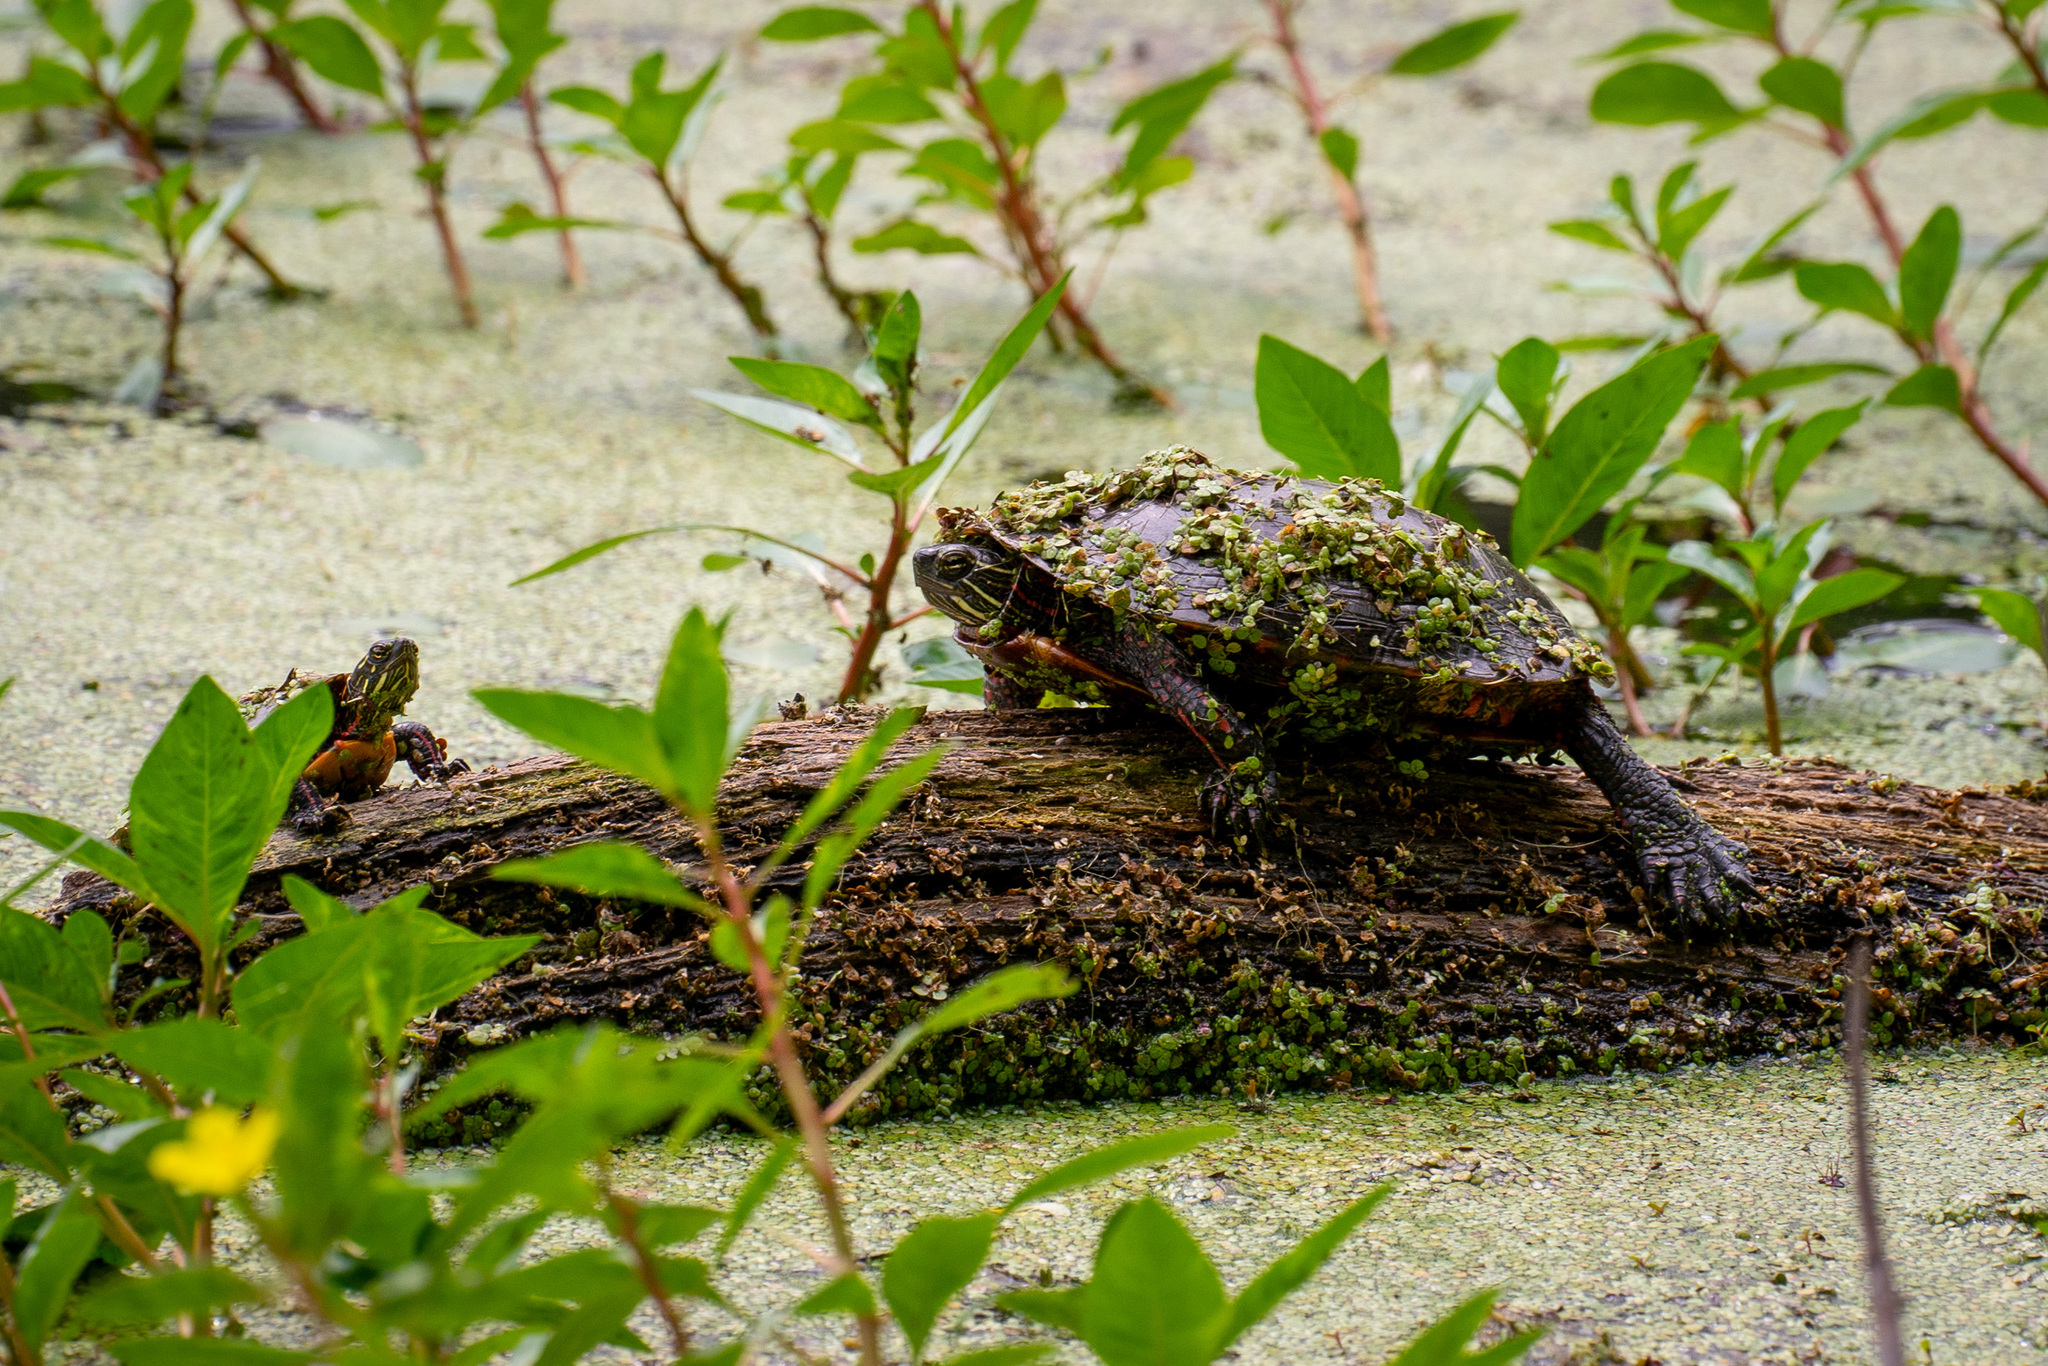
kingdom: Animalia
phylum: Chordata
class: Testudines
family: Emydidae
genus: Chrysemys
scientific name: Chrysemys picta
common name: Painted turtle
